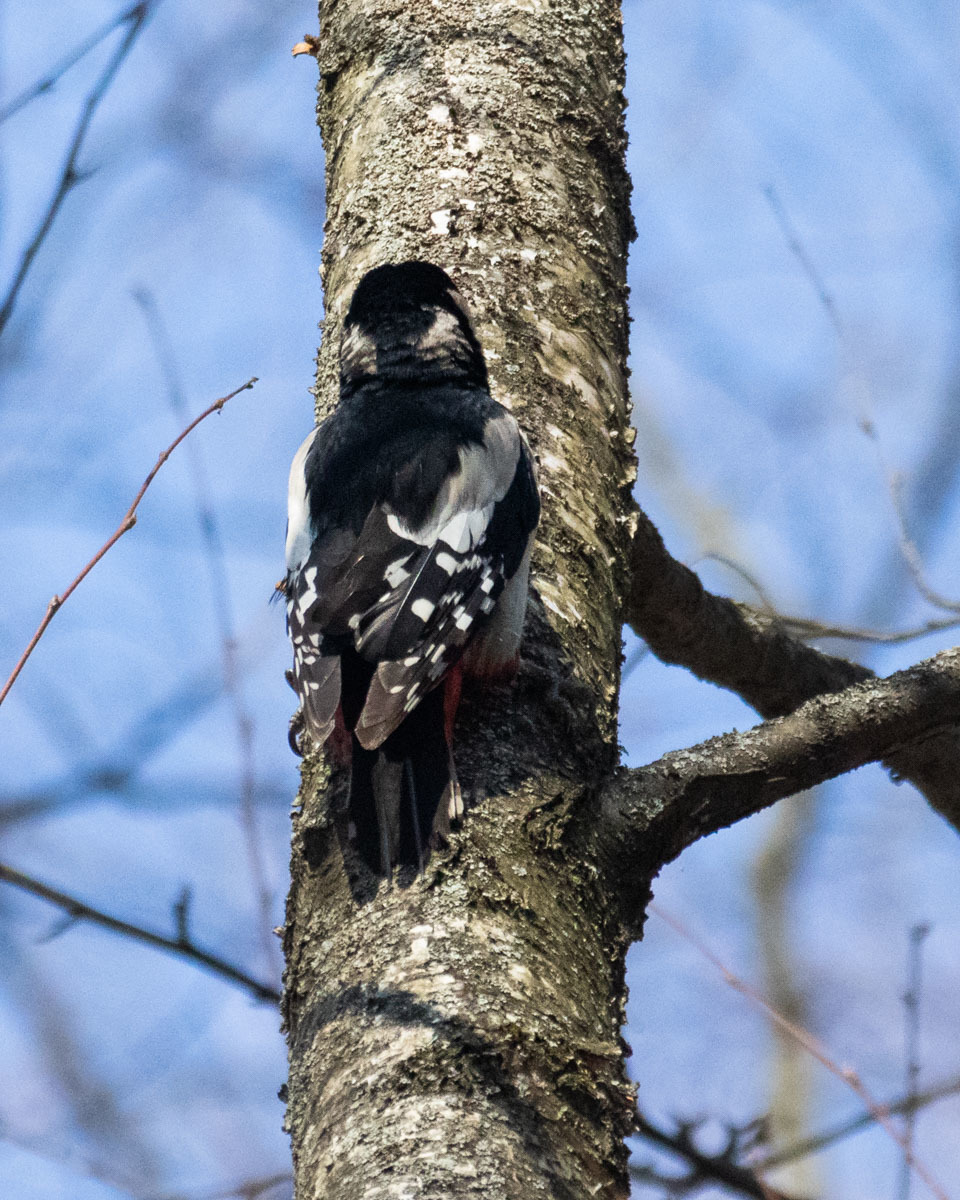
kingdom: Animalia
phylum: Chordata
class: Aves
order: Piciformes
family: Picidae
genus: Dendrocopos
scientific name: Dendrocopos major
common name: Great spotted woodpecker
